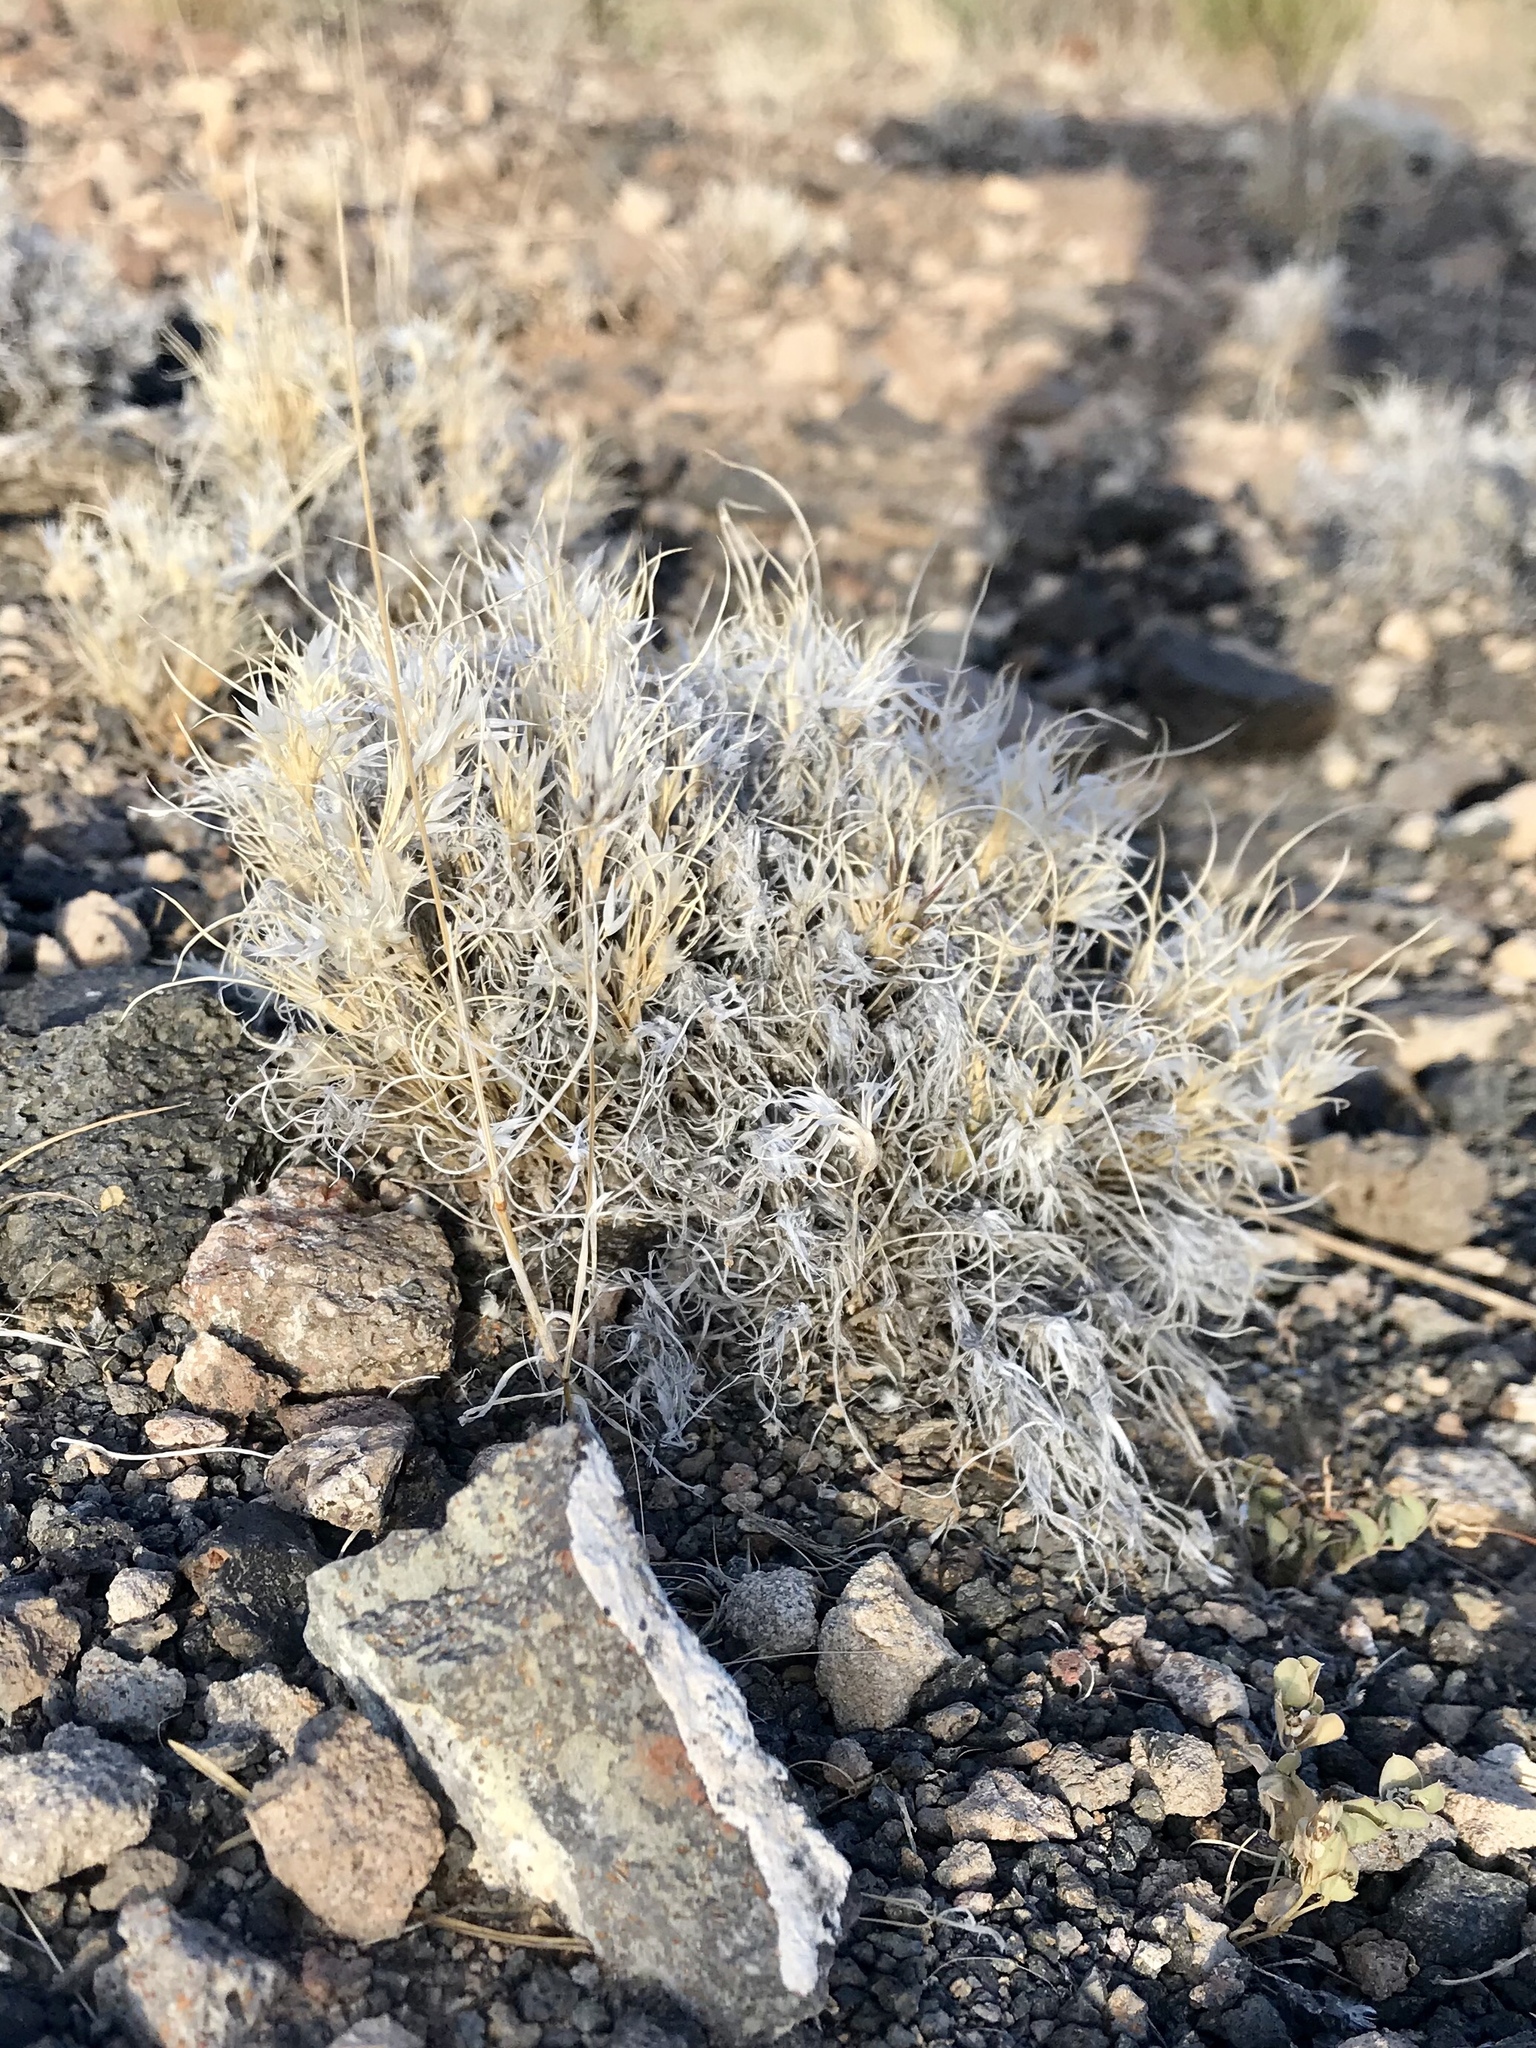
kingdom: Plantae
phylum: Tracheophyta
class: Liliopsida
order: Poales
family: Poaceae
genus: Dasyochloa
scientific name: Dasyochloa pulchella
